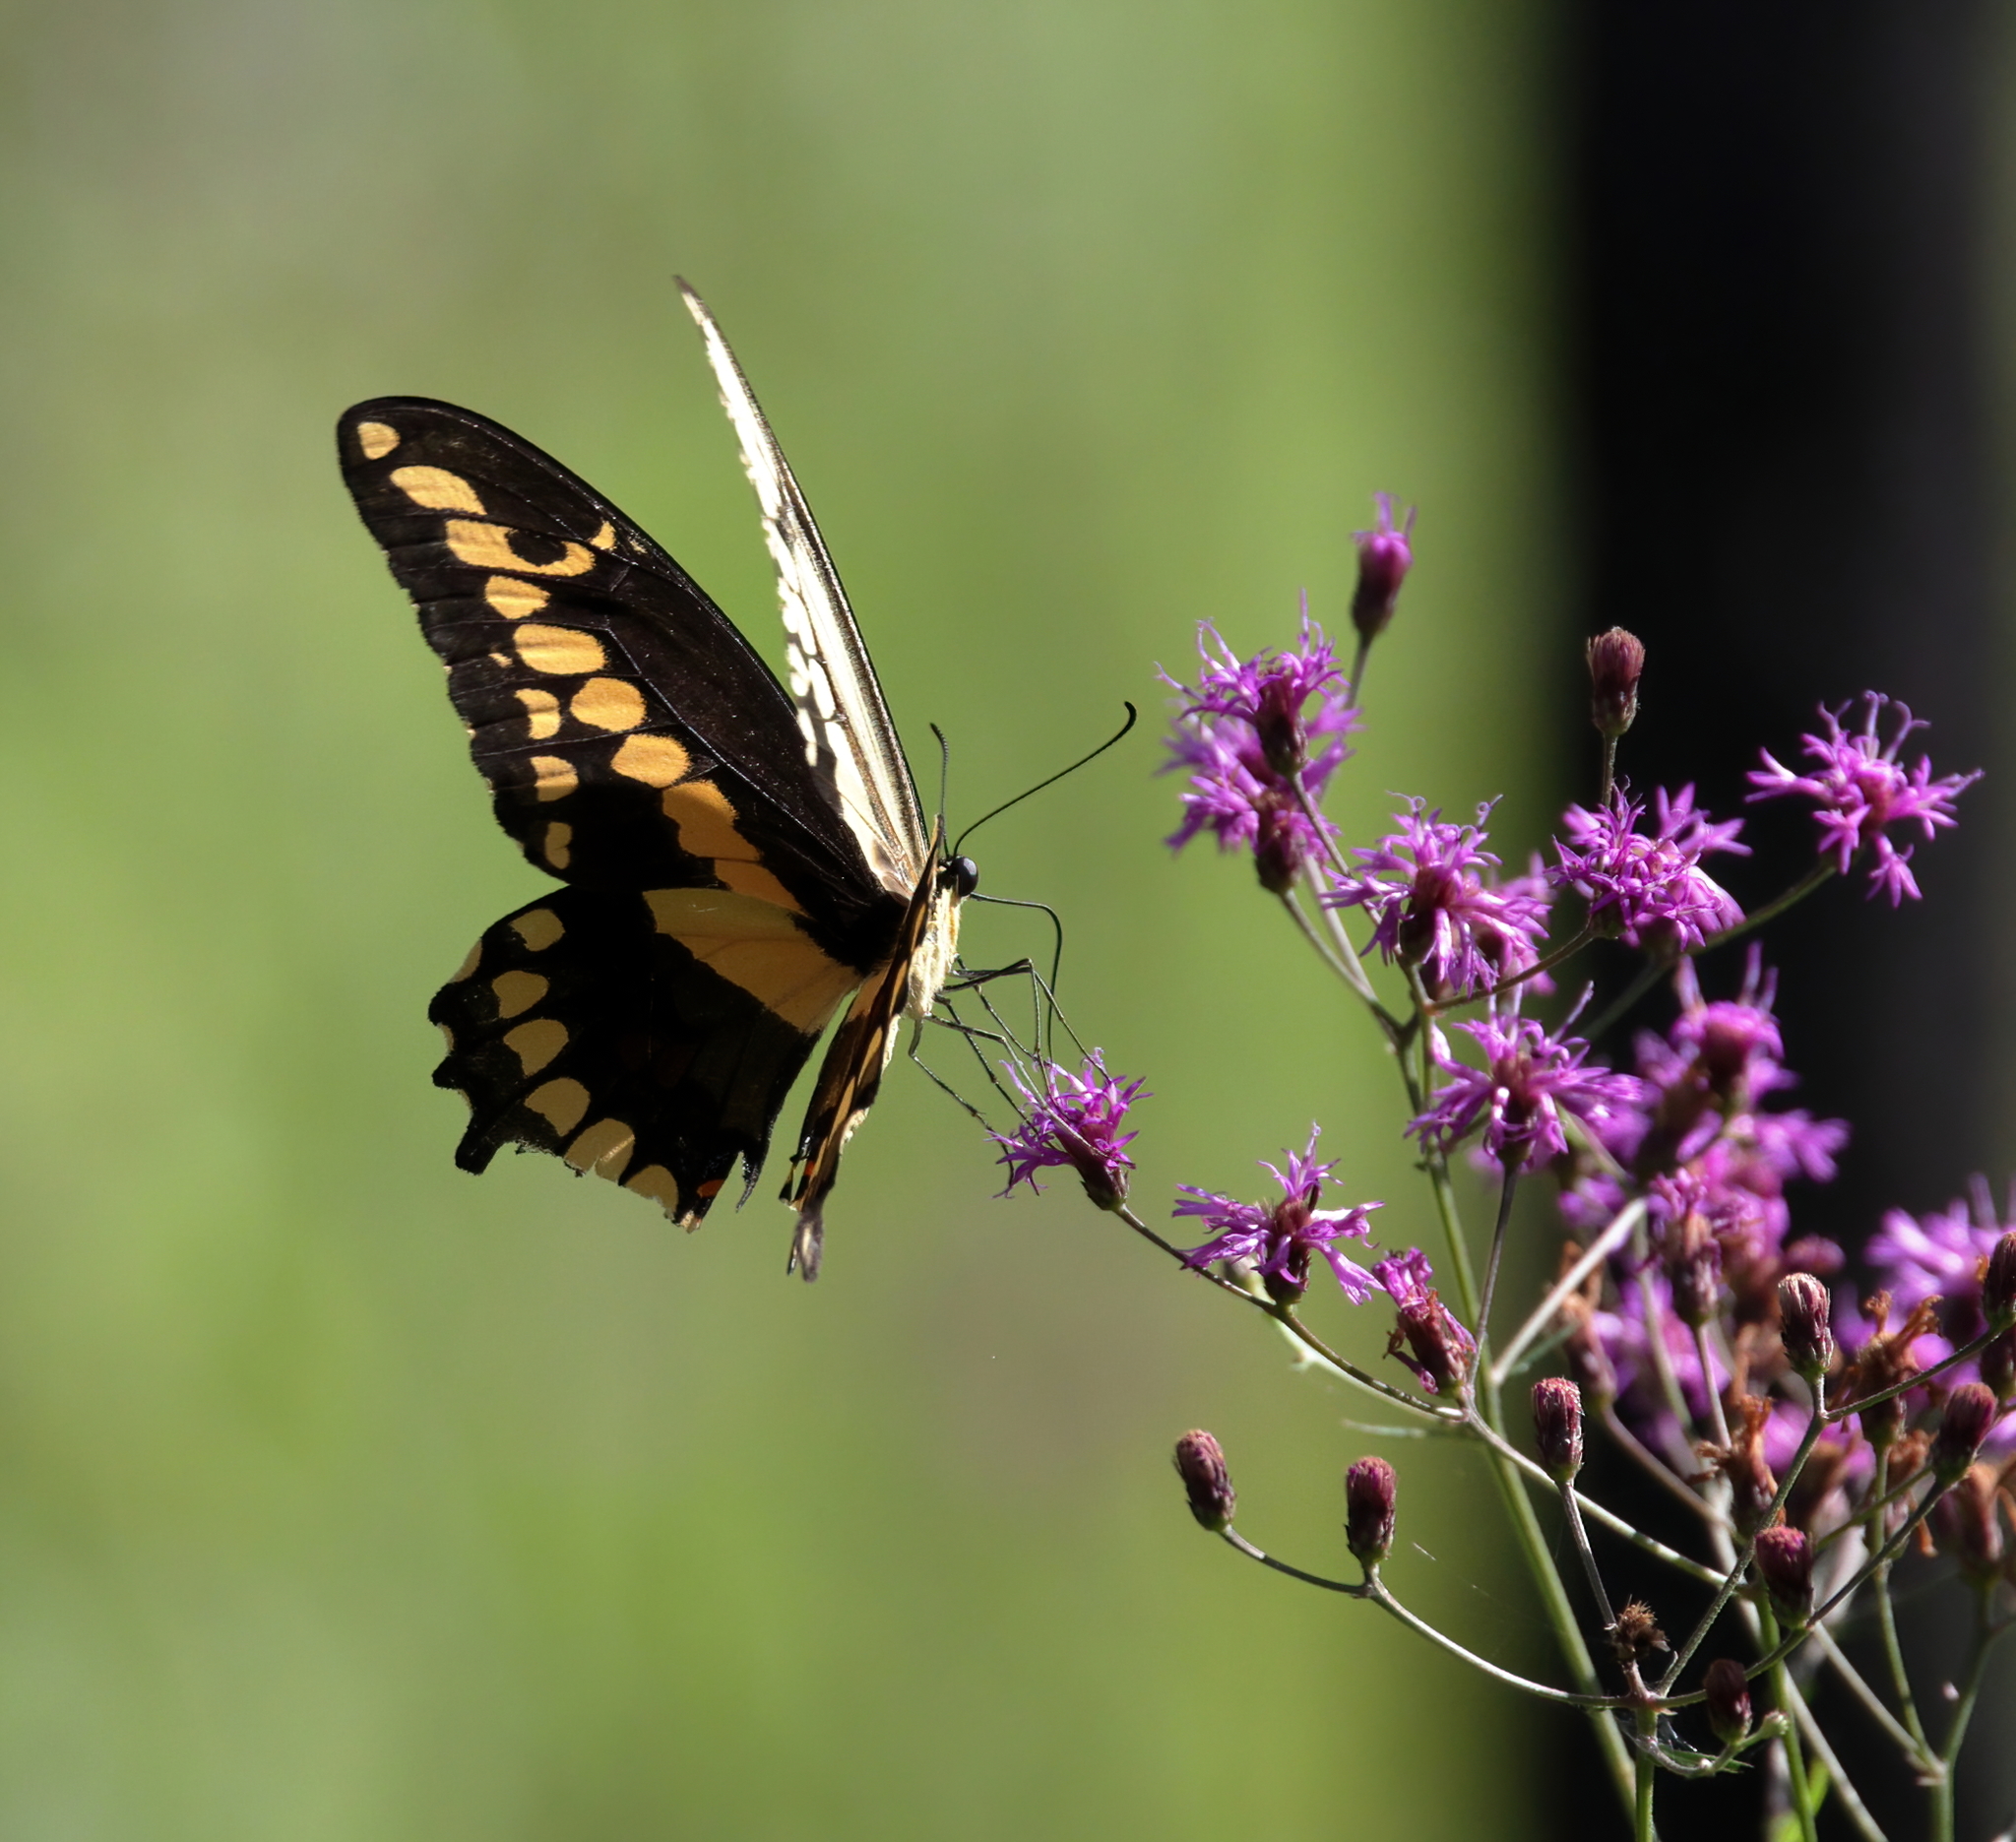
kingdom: Animalia
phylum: Arthropoda
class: Insecta
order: Lepidoptera
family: Papilionidae
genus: Papilio
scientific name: Papilio cresphontes
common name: Giant swallowtail
